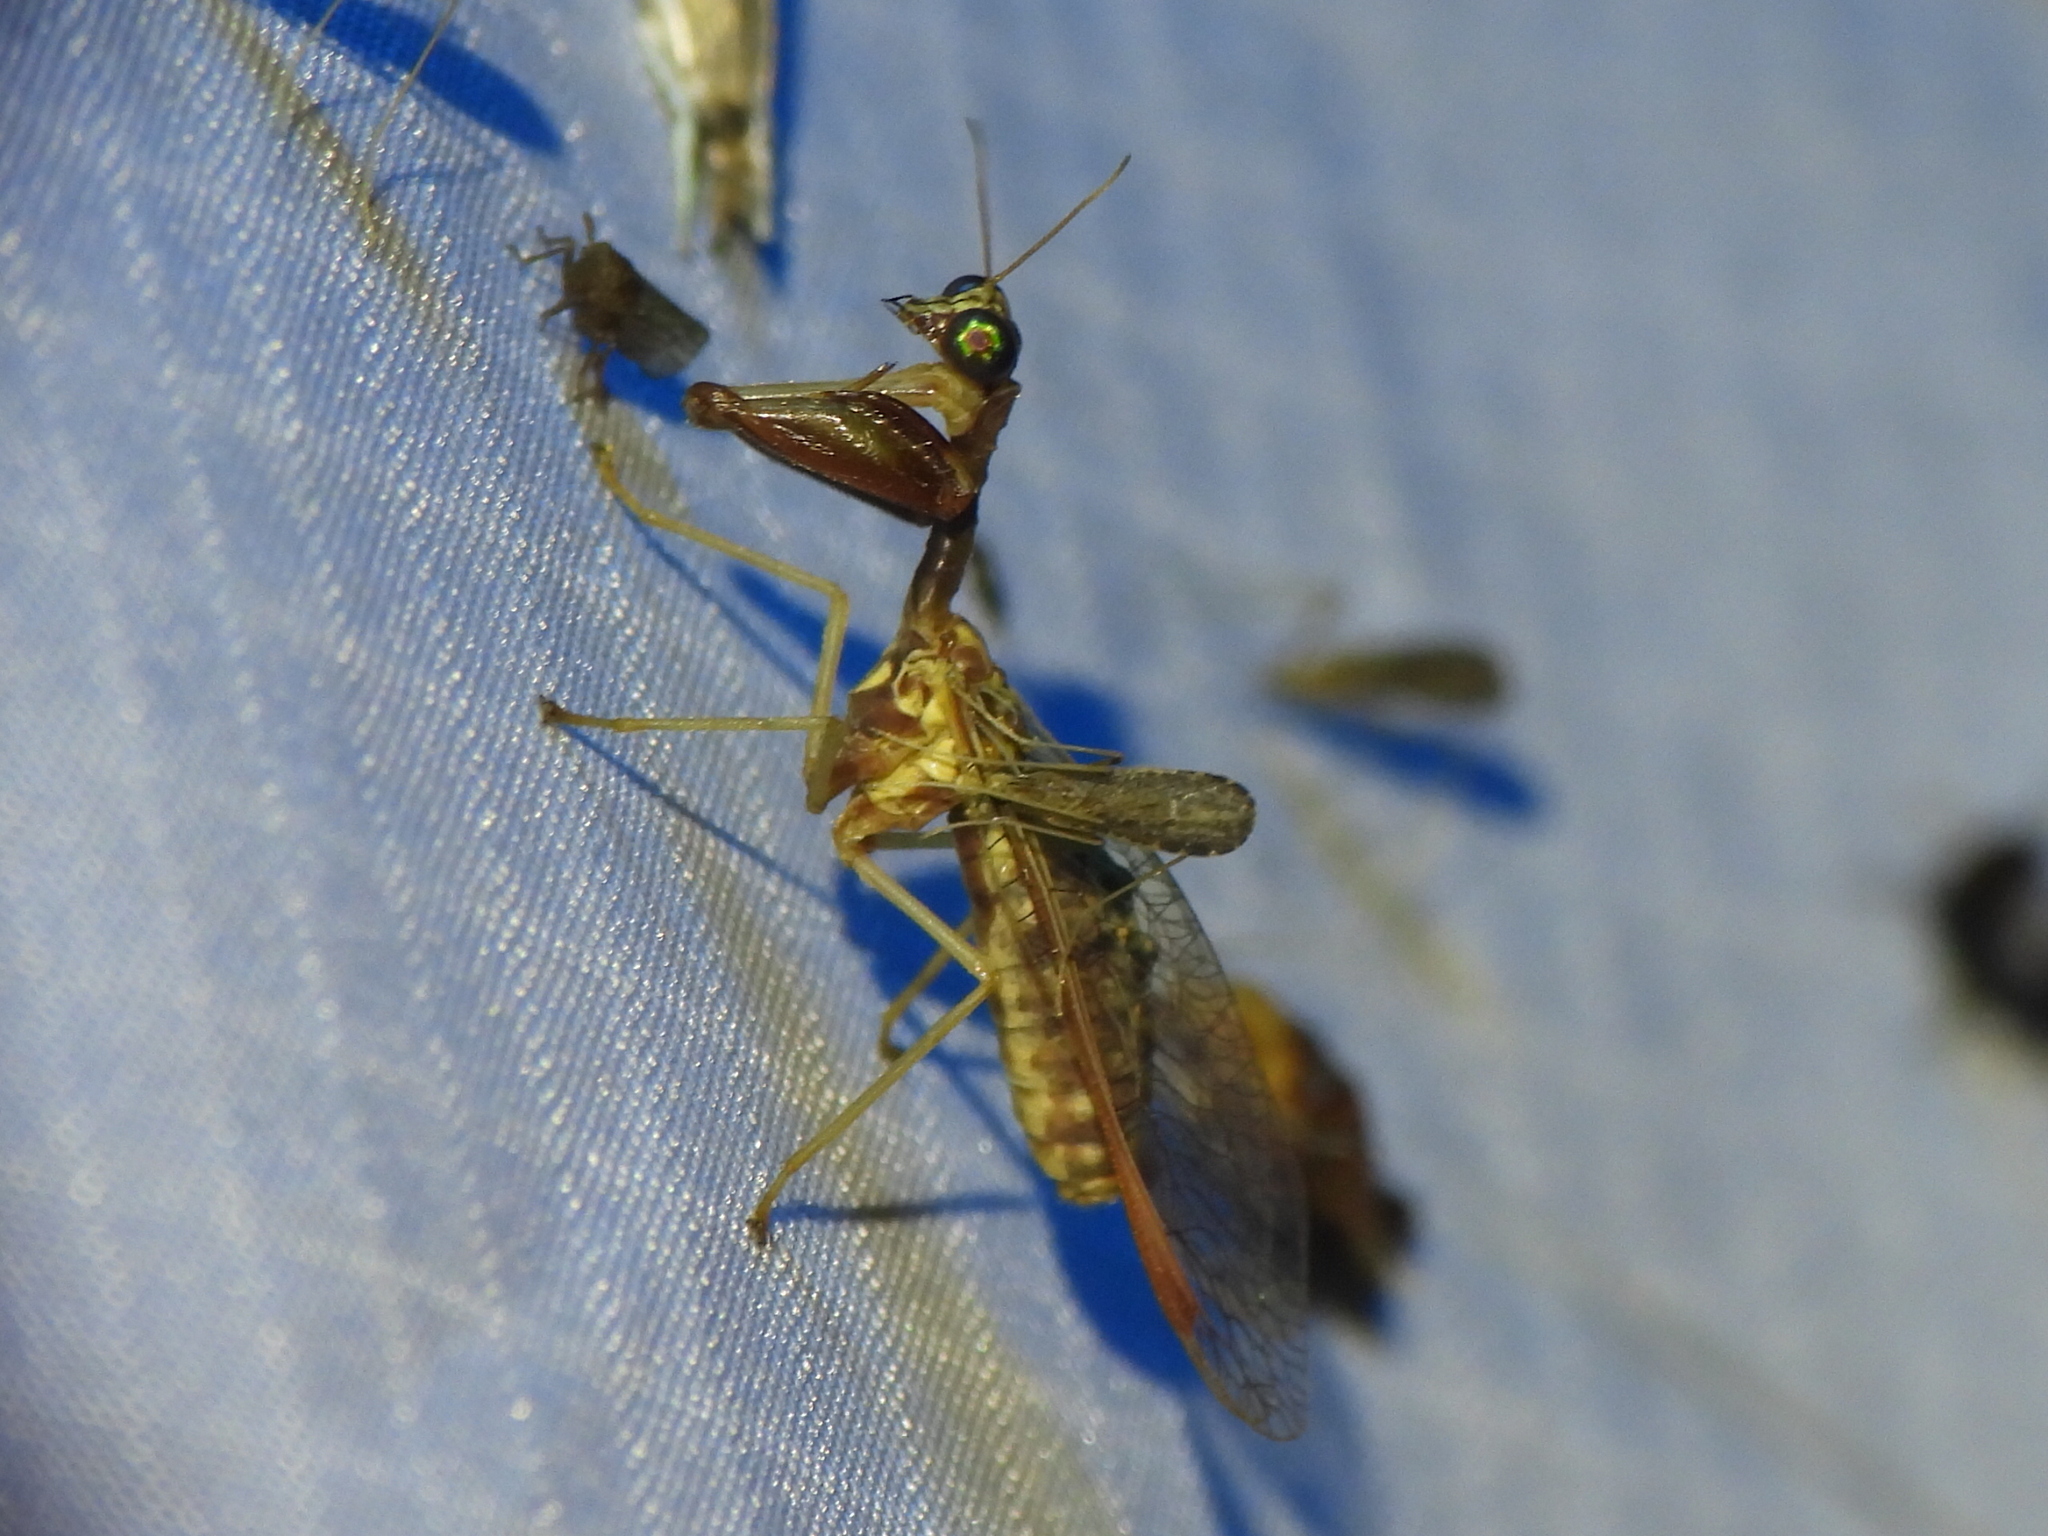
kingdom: Animalia
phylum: Arthropoda
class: Insecta
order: Neuroptera
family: Mantispidae
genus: Dicromantispa
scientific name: Dicromantispa sayi
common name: Say's mantidfly
